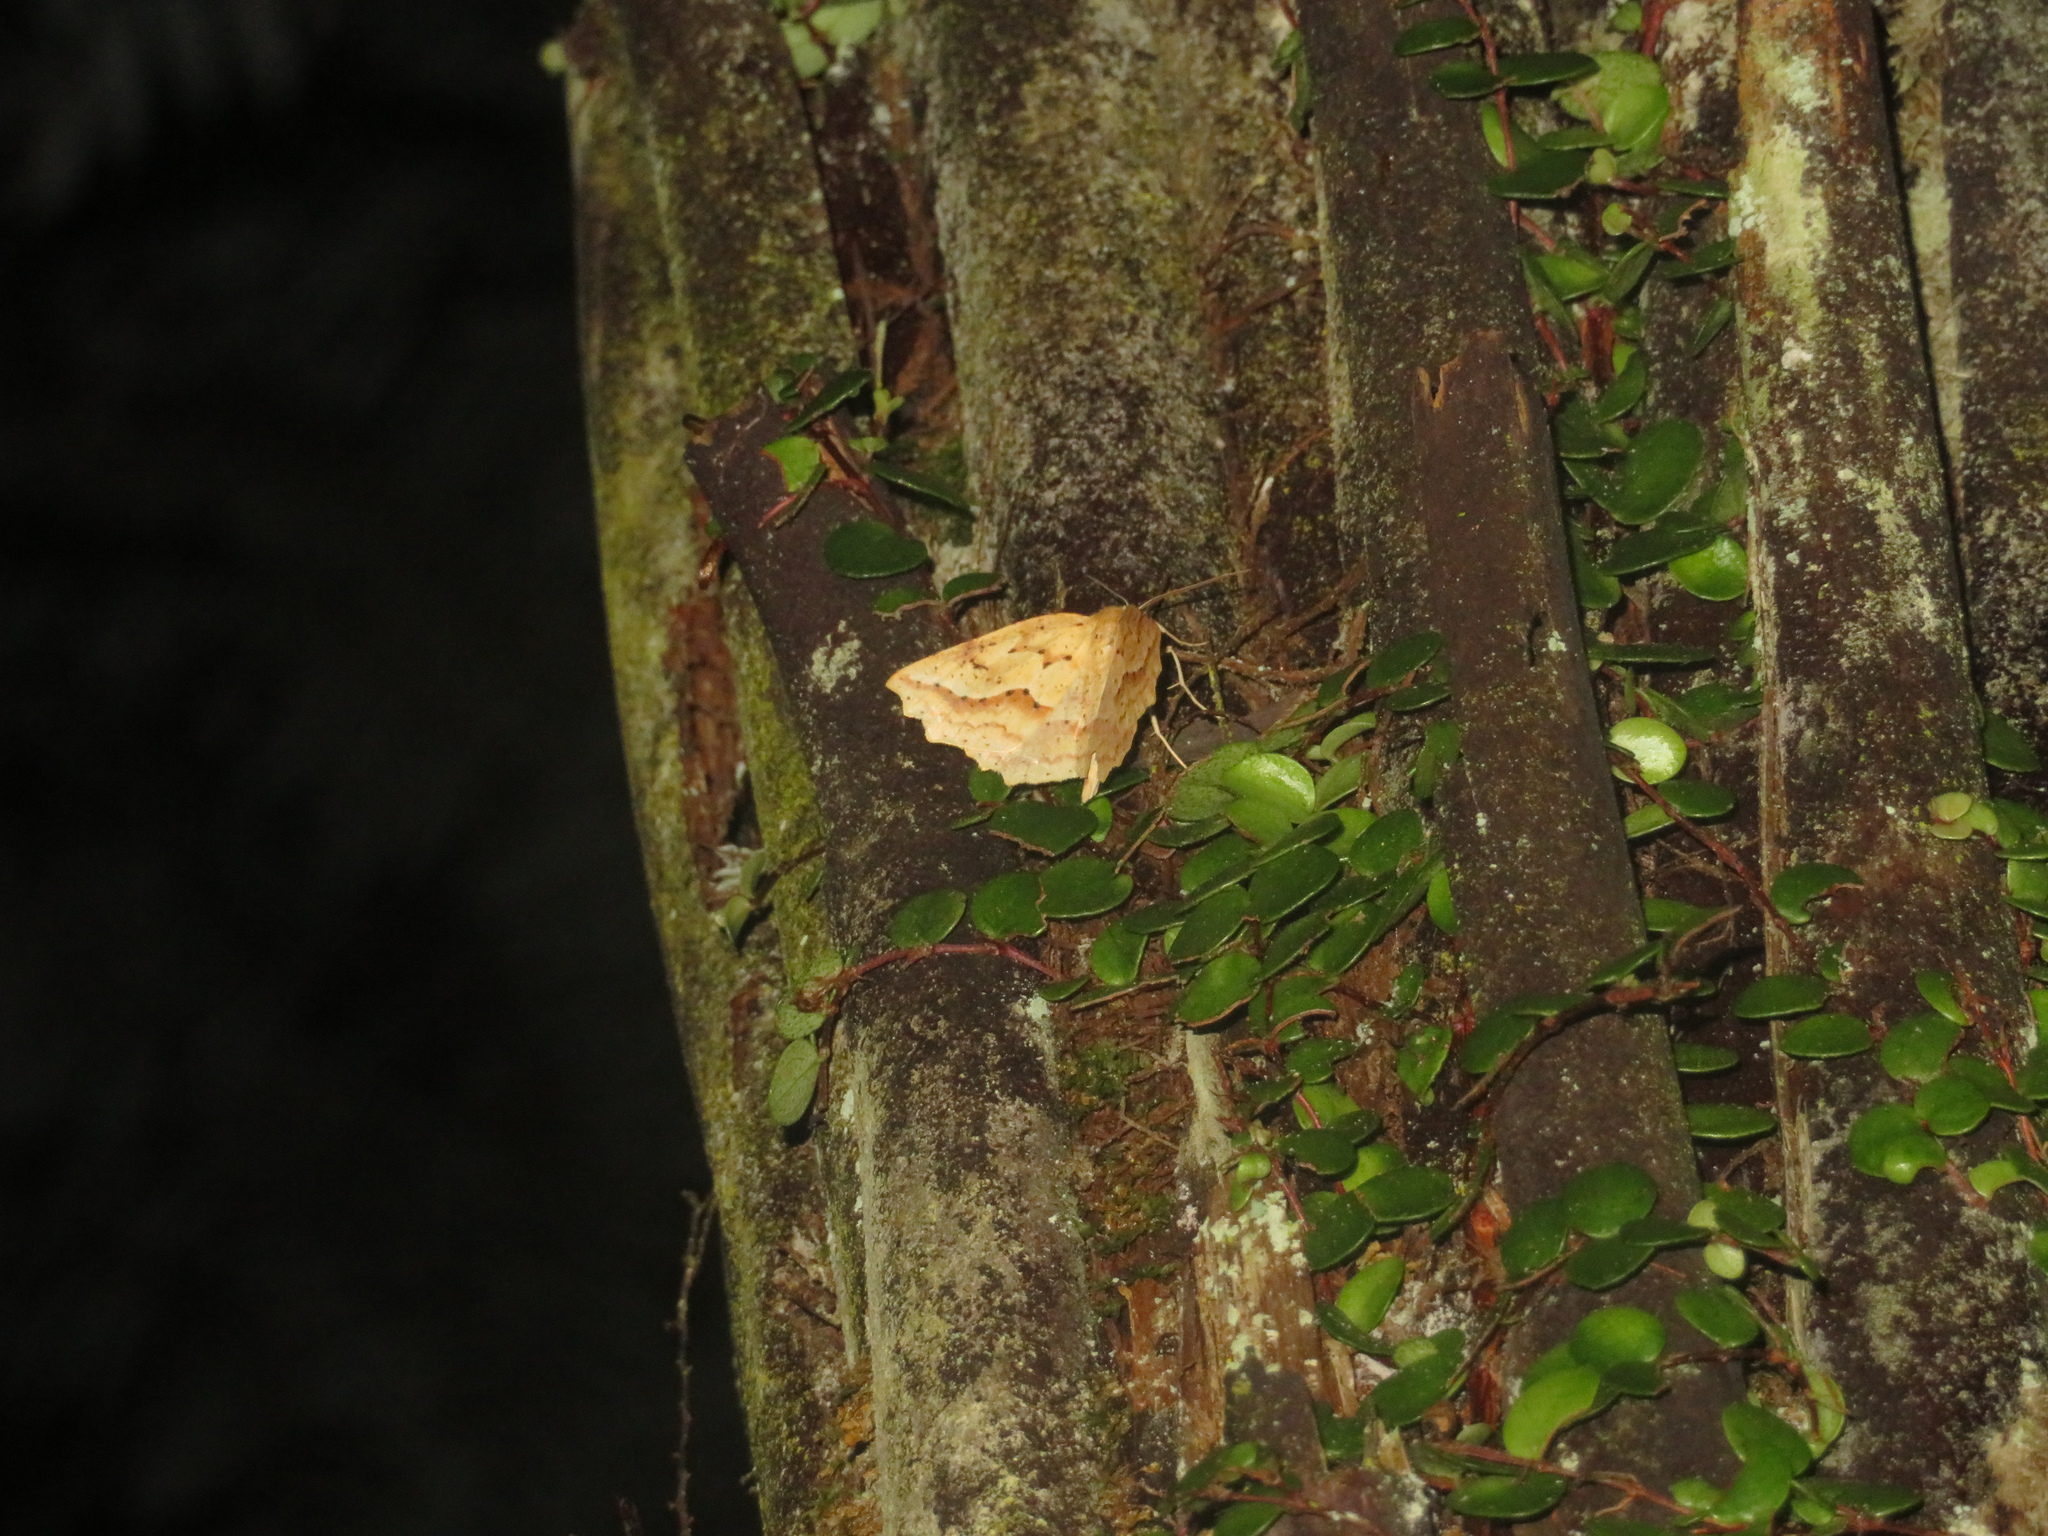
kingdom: Animalia
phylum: Arthropoda
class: Insecta
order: Lepidoptera
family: Geometridae
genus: Ischalis
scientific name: Ischalis variabilis
